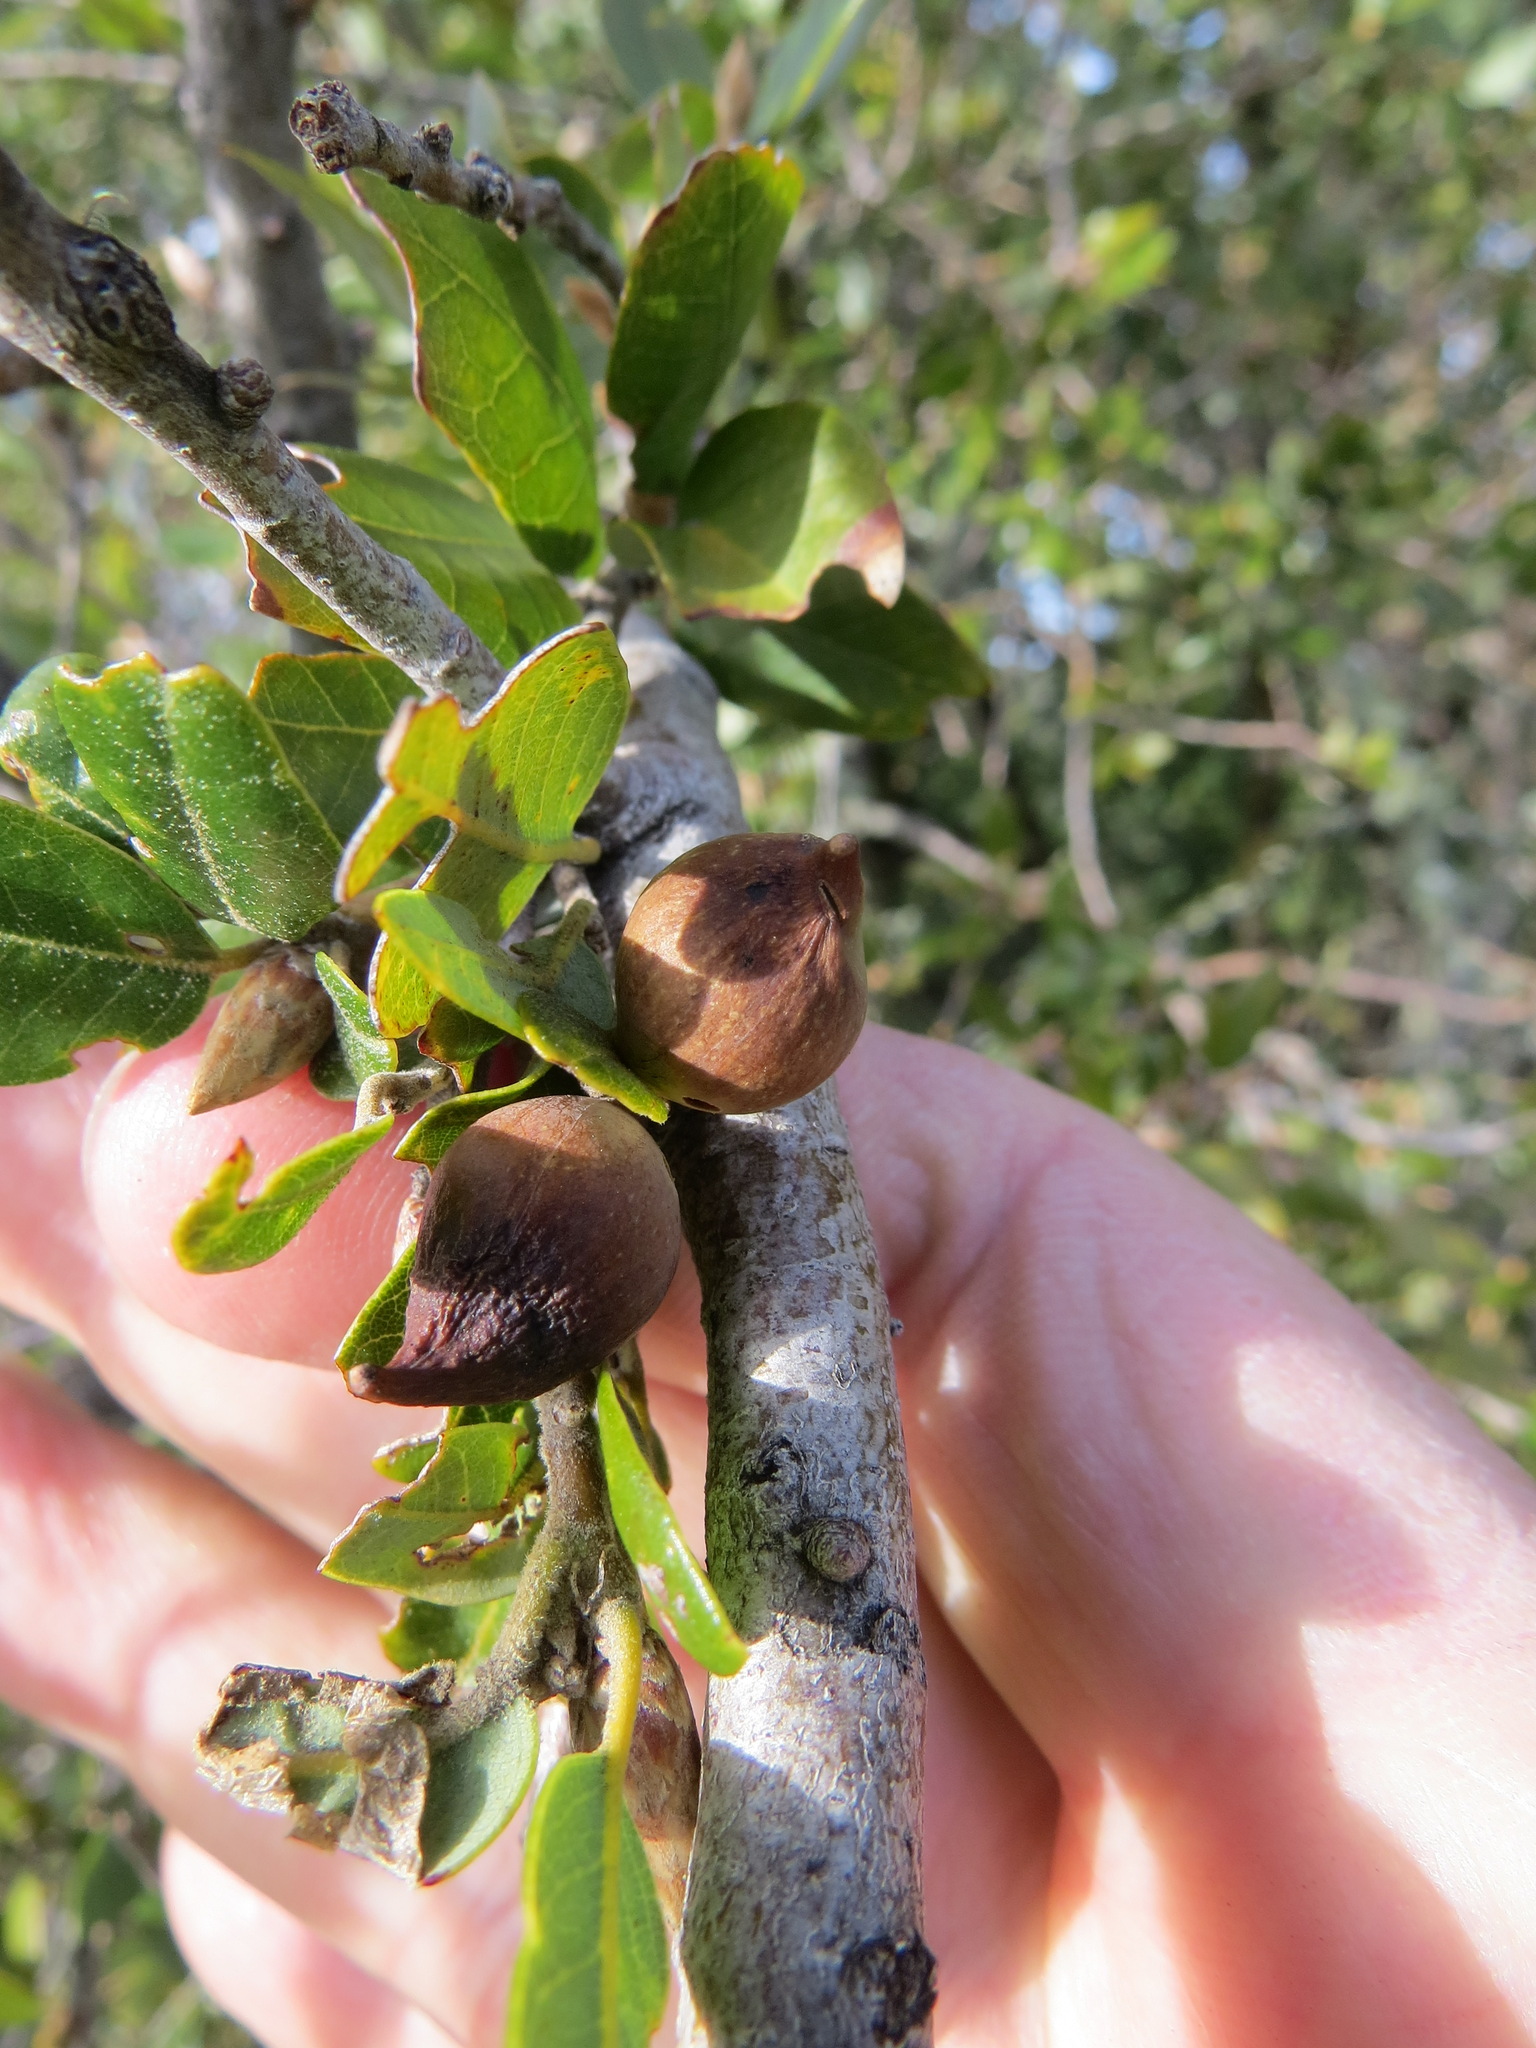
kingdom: Animalia
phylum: Arthropoda
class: Insecta
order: Hymenoptera
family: Cynipidae
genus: Heteroecus
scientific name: Heteroecus pacificus
